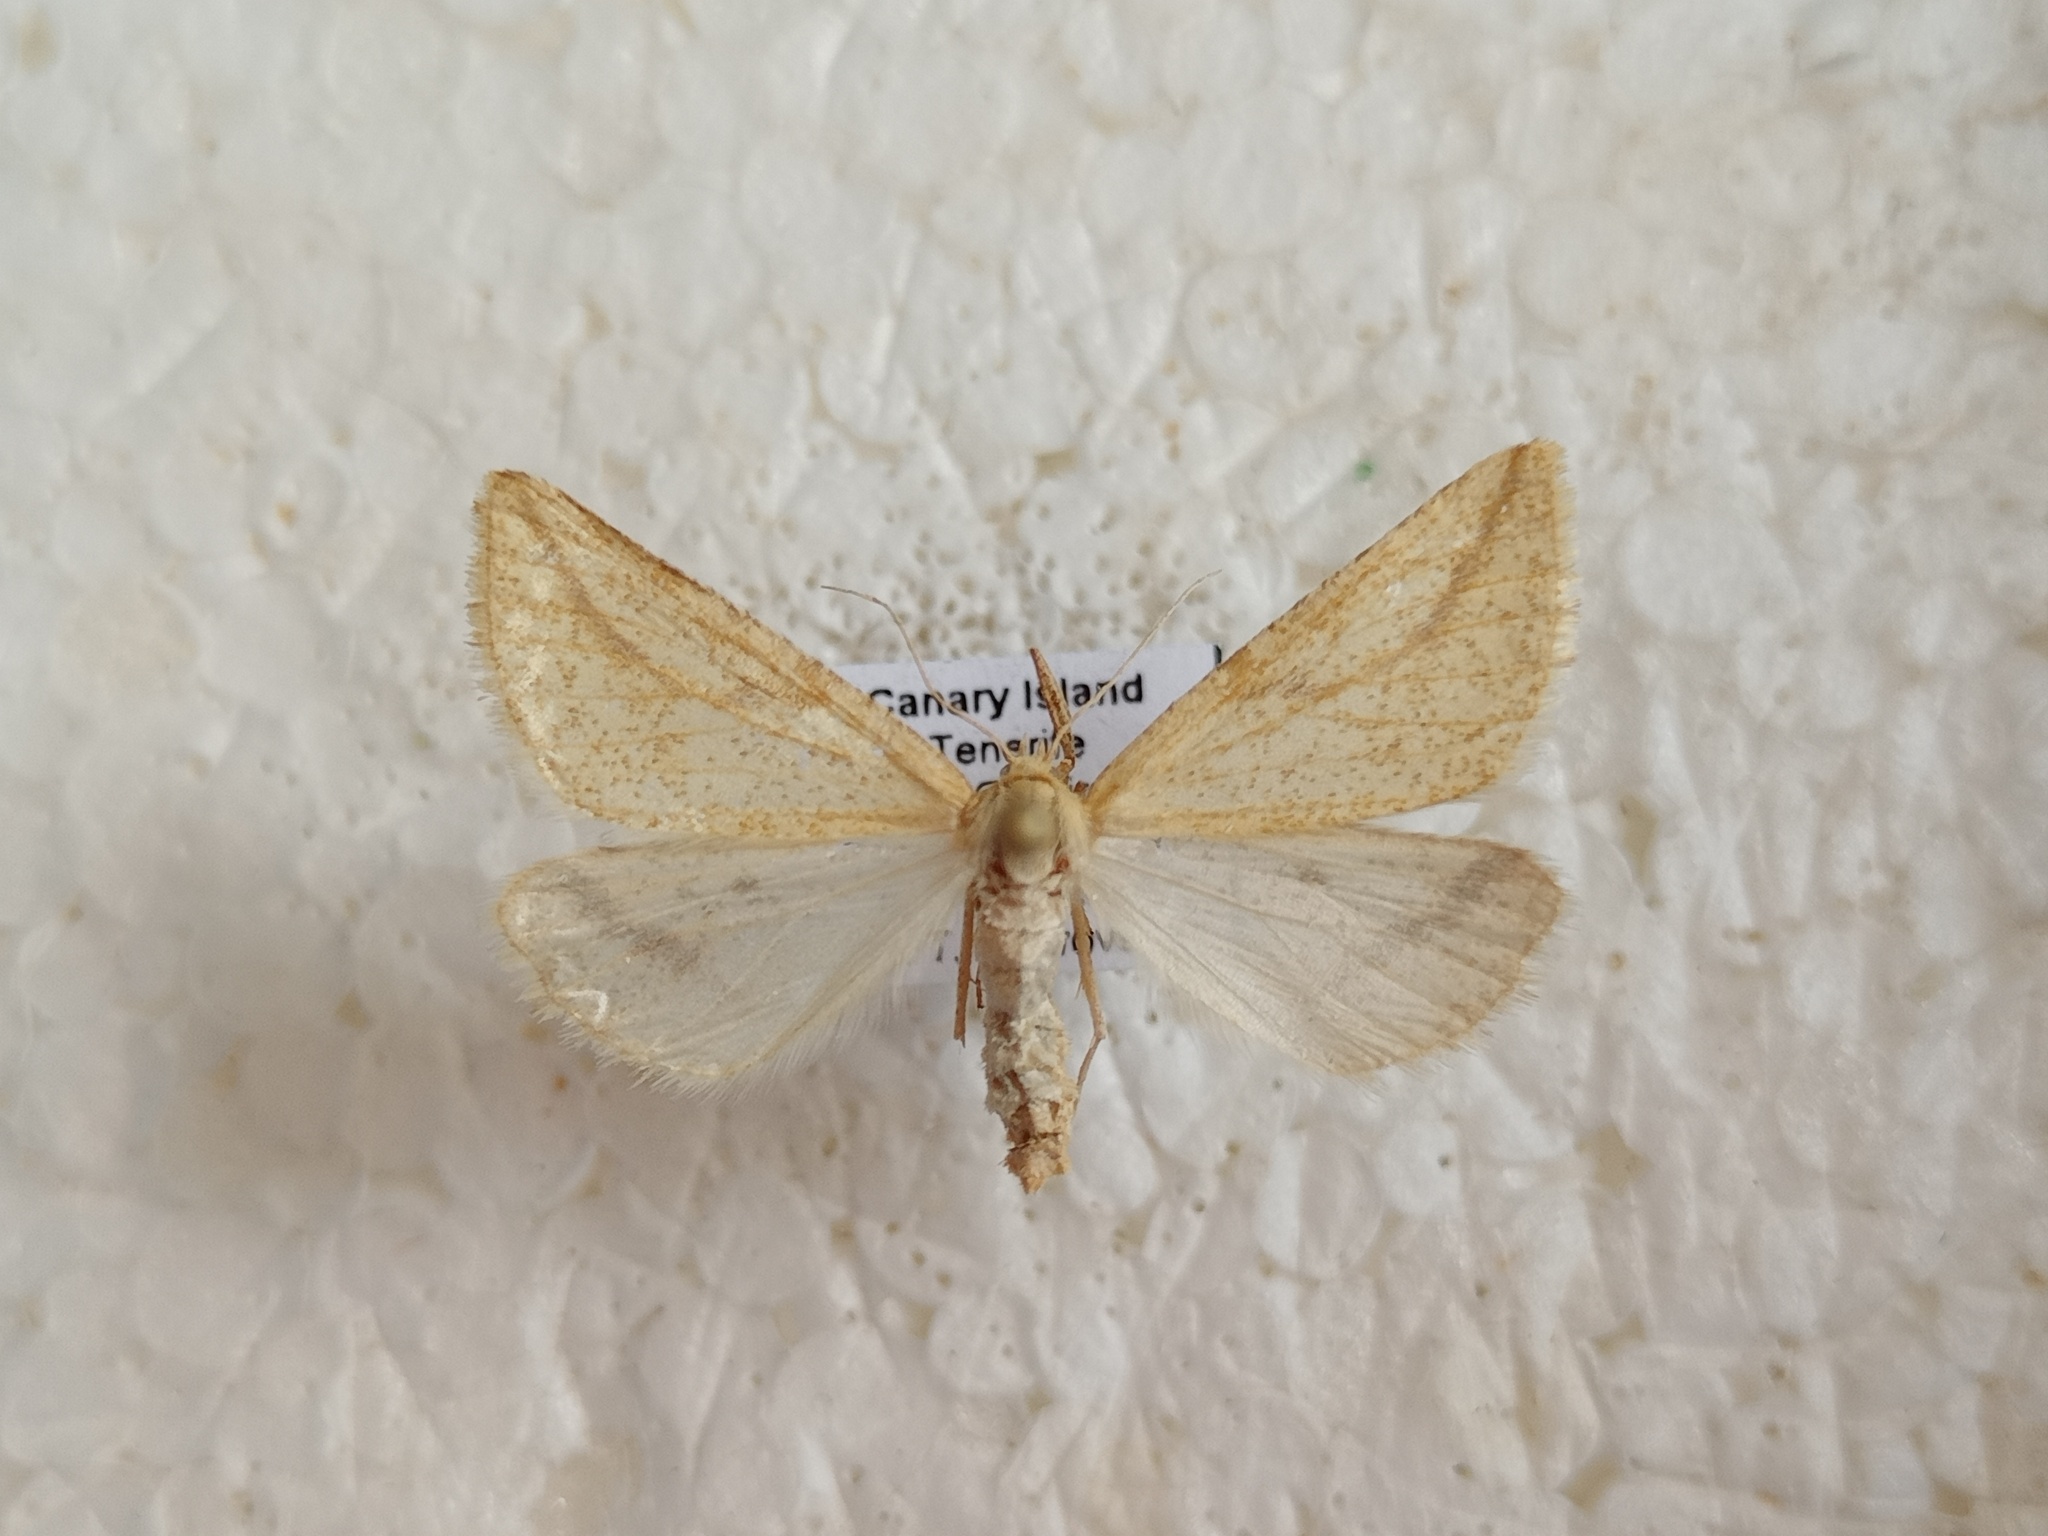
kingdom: Animalia
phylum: Arthropoda
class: Insecta
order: Lepidoptera
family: Geometridae
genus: Aspitates
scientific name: Aspitates collinaria
